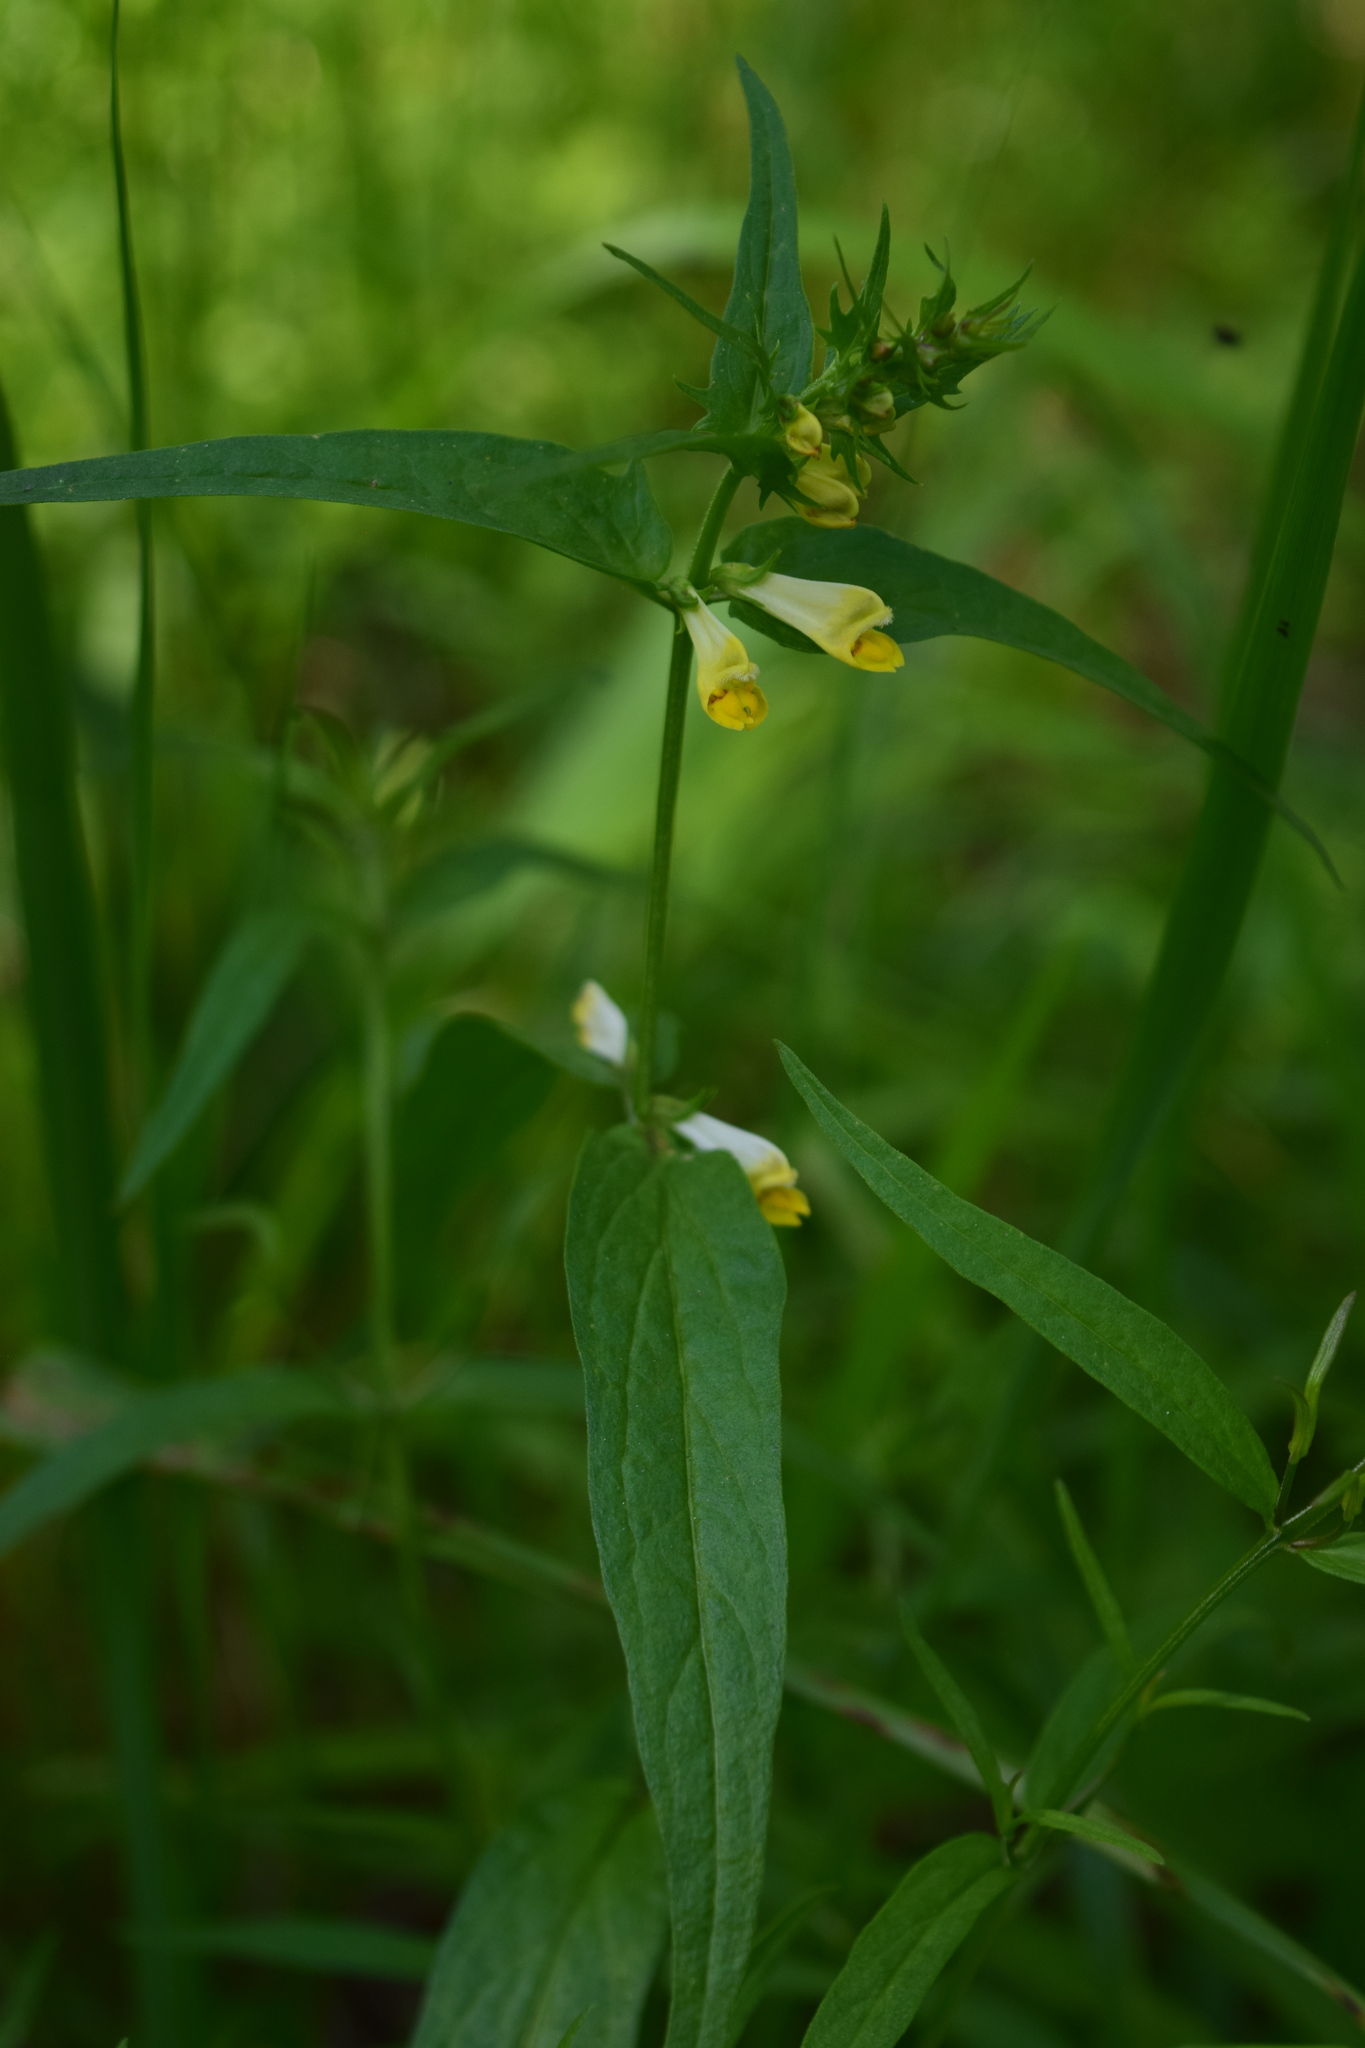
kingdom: Plantae
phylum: Tracheophyta
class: Magnoliopsida
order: Lamiales
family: Orobanchaceae
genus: Melampyrum
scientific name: Melampyrum pratense
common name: Common cow-wheat
